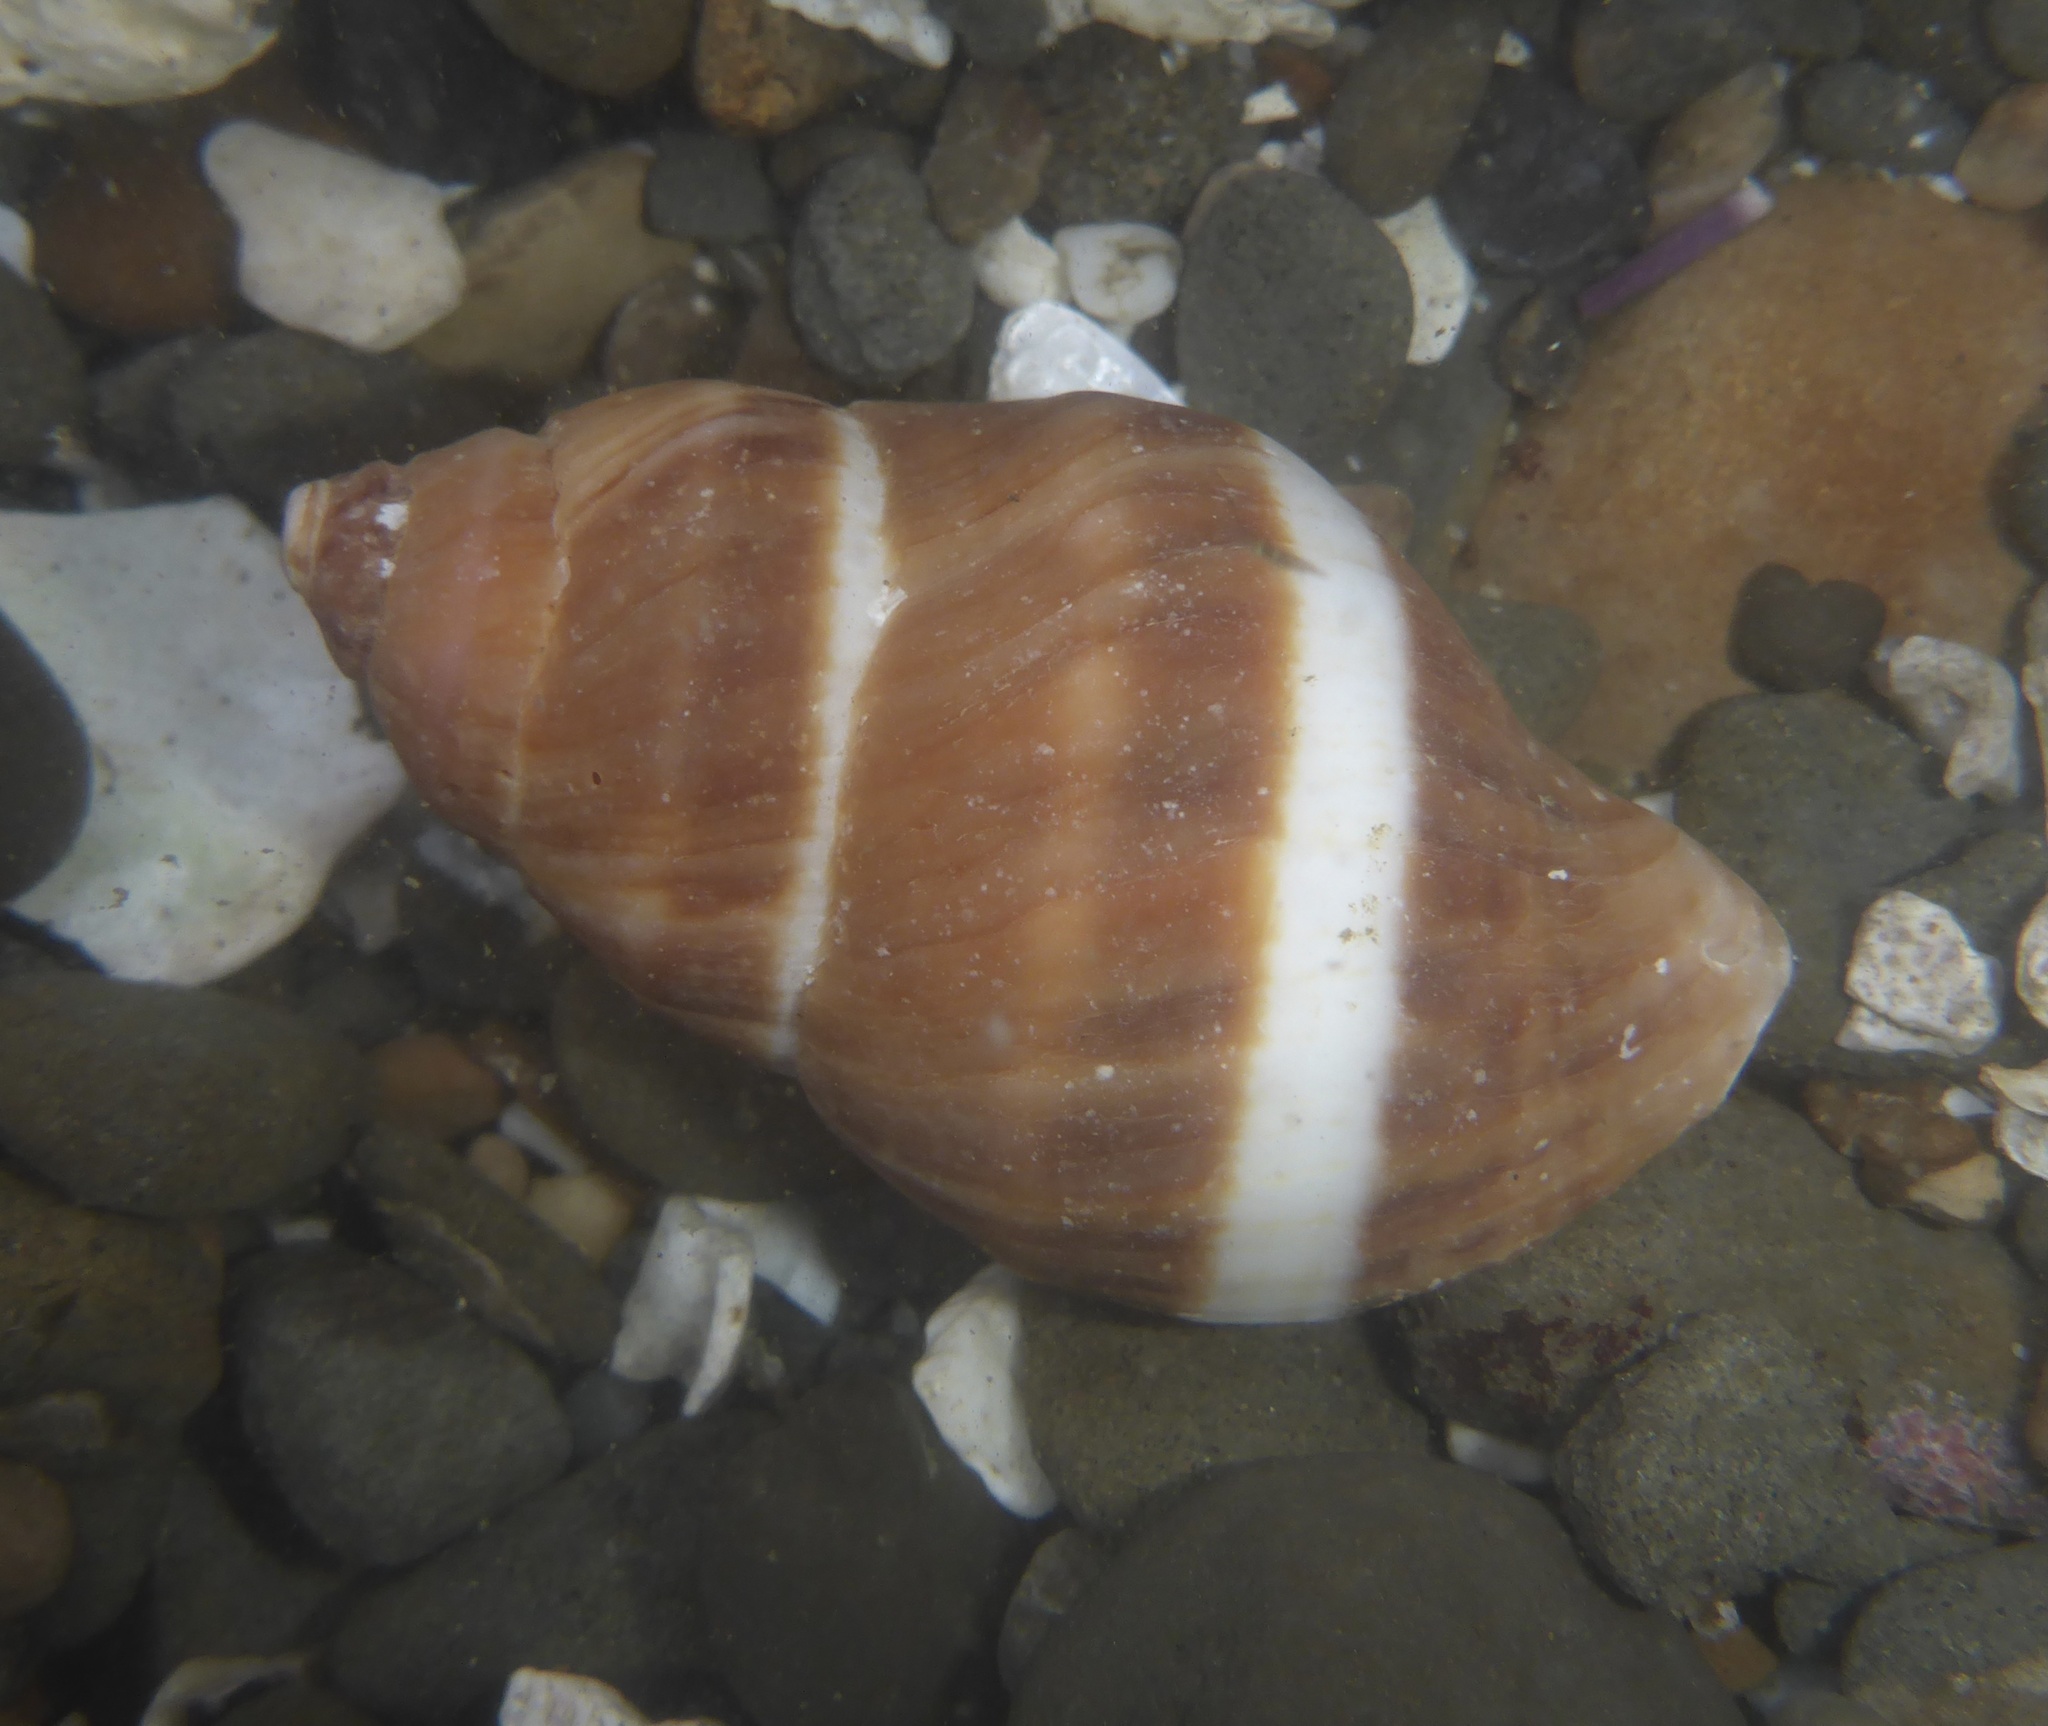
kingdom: Animalia
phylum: Mollusca
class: Gastropoda
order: Neogastropoda
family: Muricidae
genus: Nucella
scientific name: Nucella lamellosa
